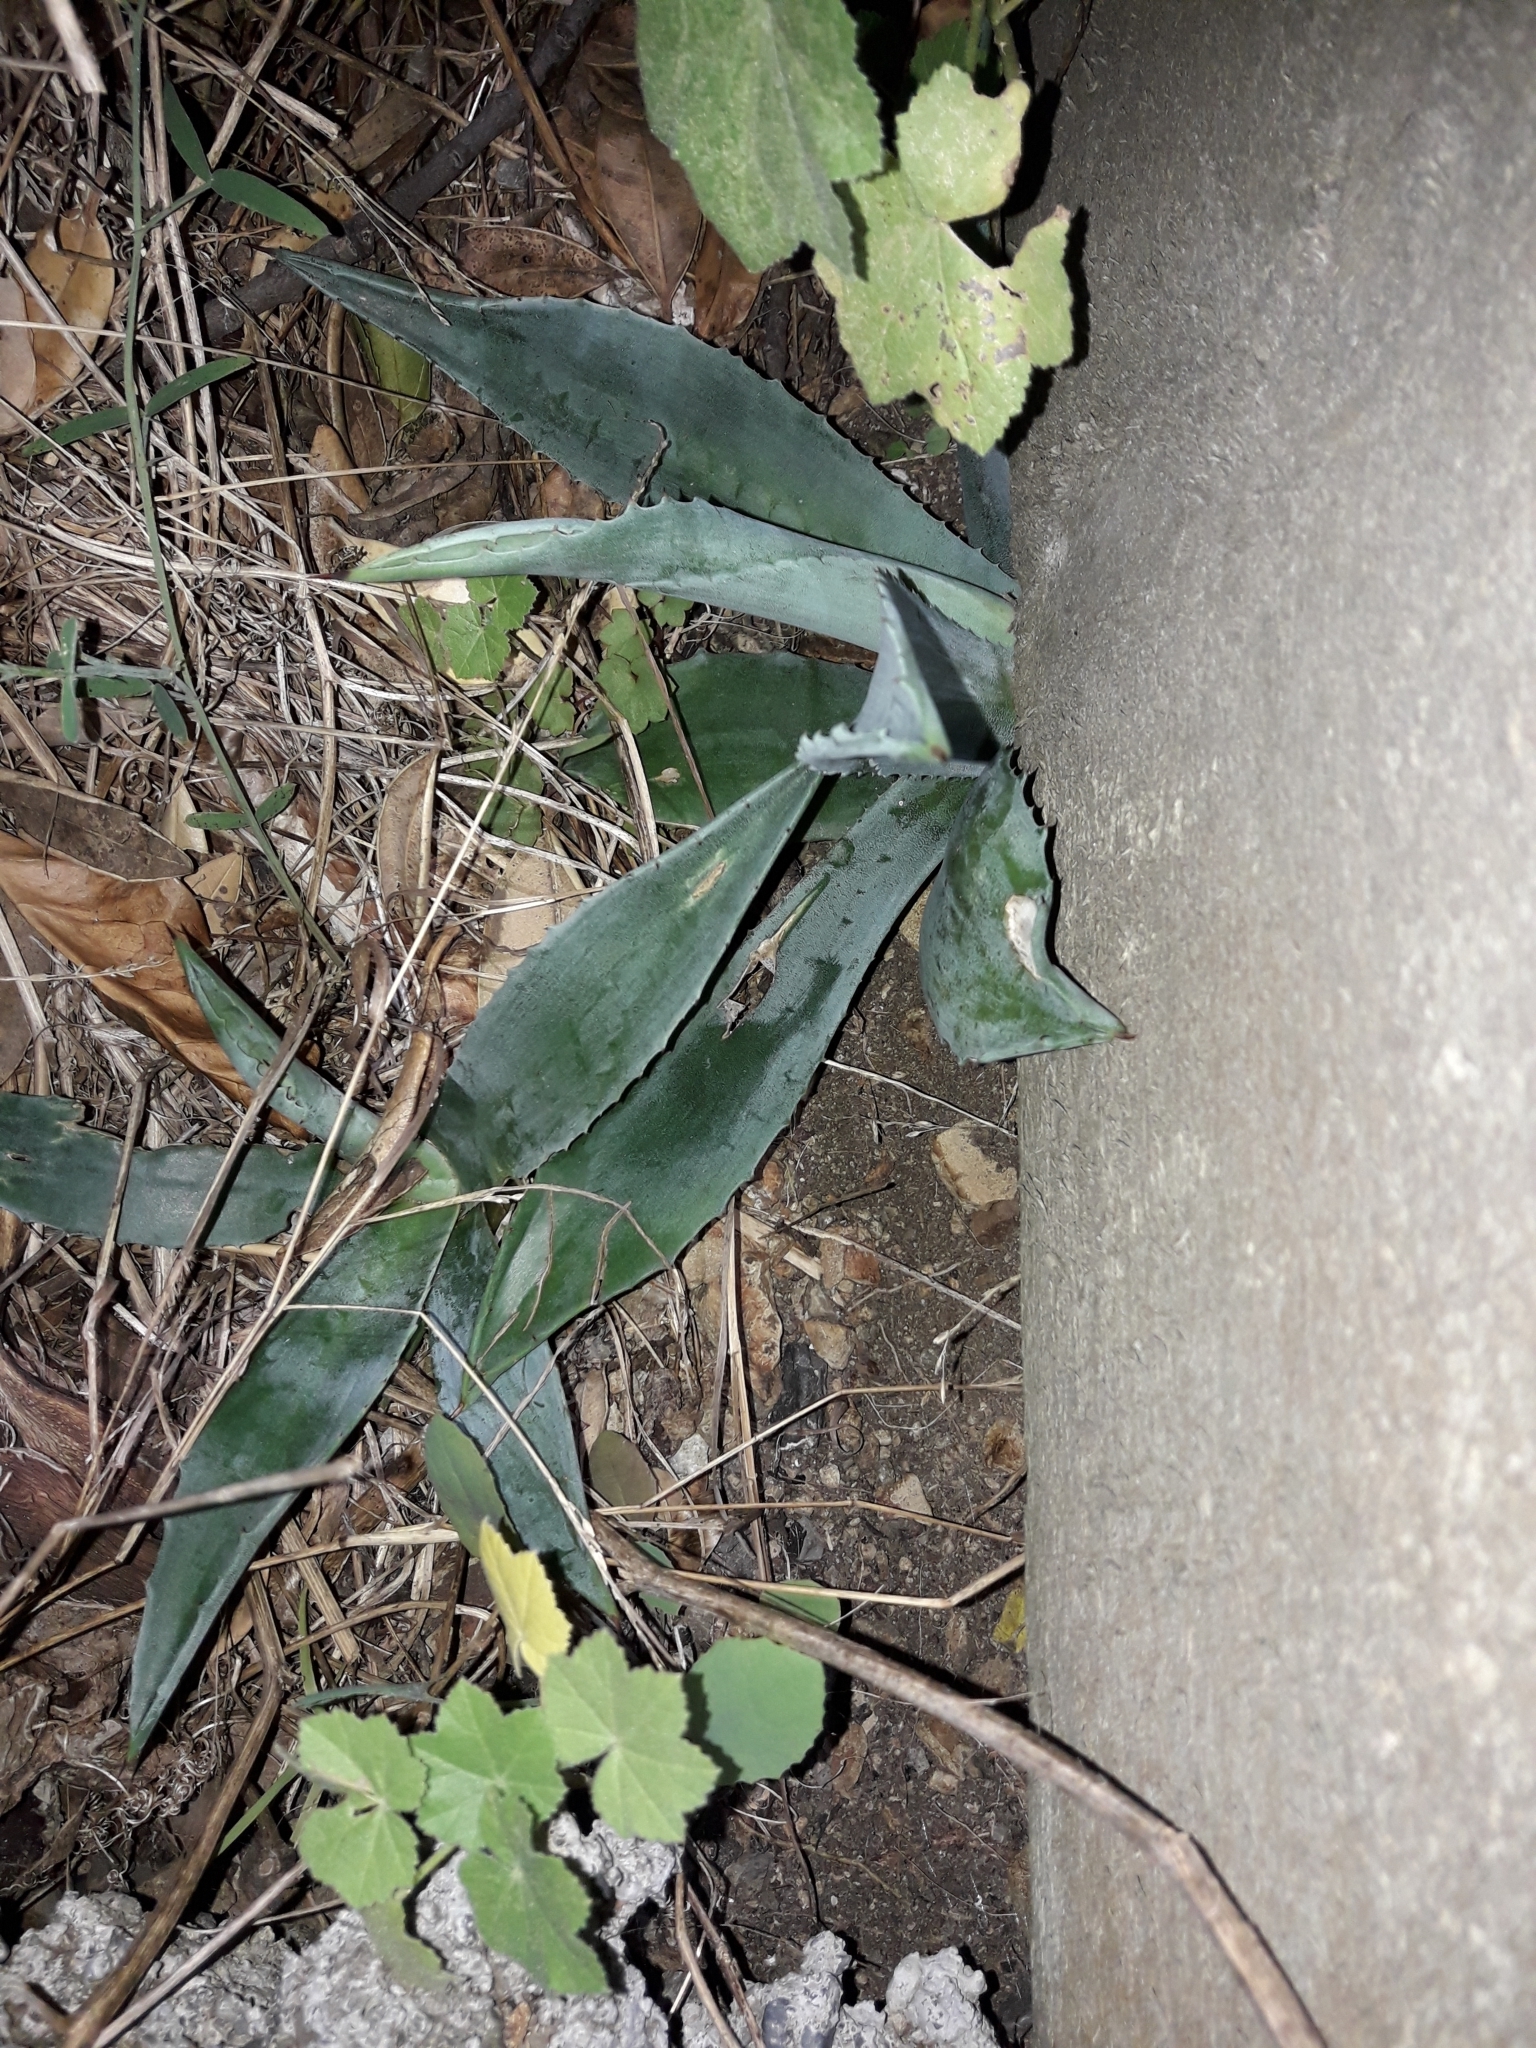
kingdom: Plantae
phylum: Tracheophyta
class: Liliopsida
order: Asparagales
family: Asparagaceae
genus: Agave
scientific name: Agave americana
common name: Centuryplant
